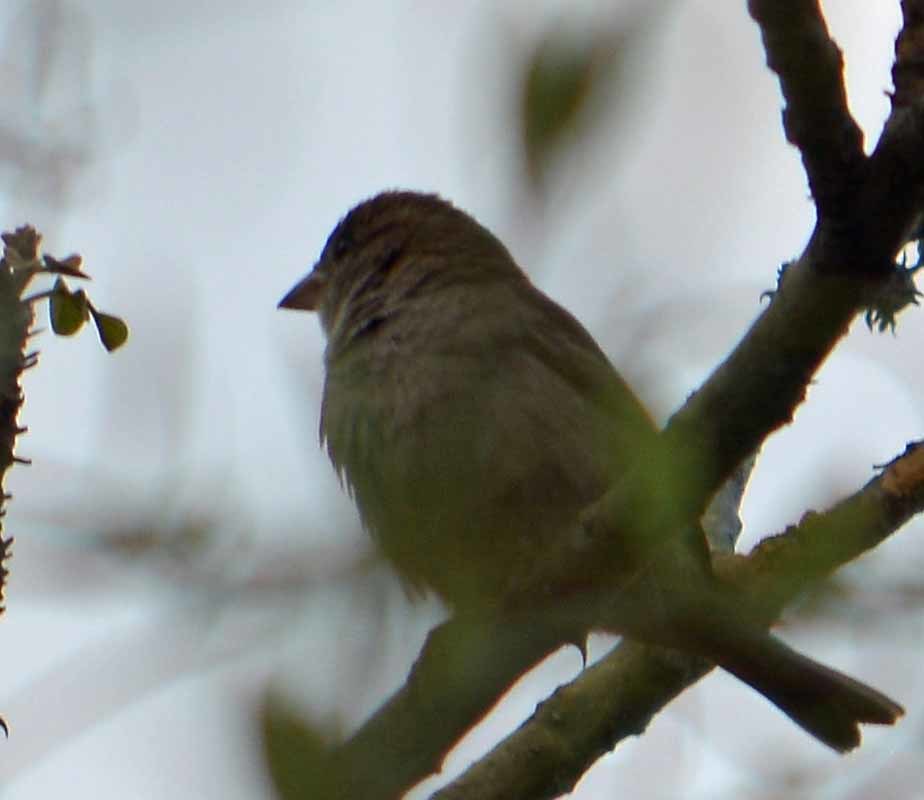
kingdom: Animalia
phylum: Chordata
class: Aves
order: Passeriformes
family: Passeridae
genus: Passer
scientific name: Passer domesticus
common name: House sparrow
